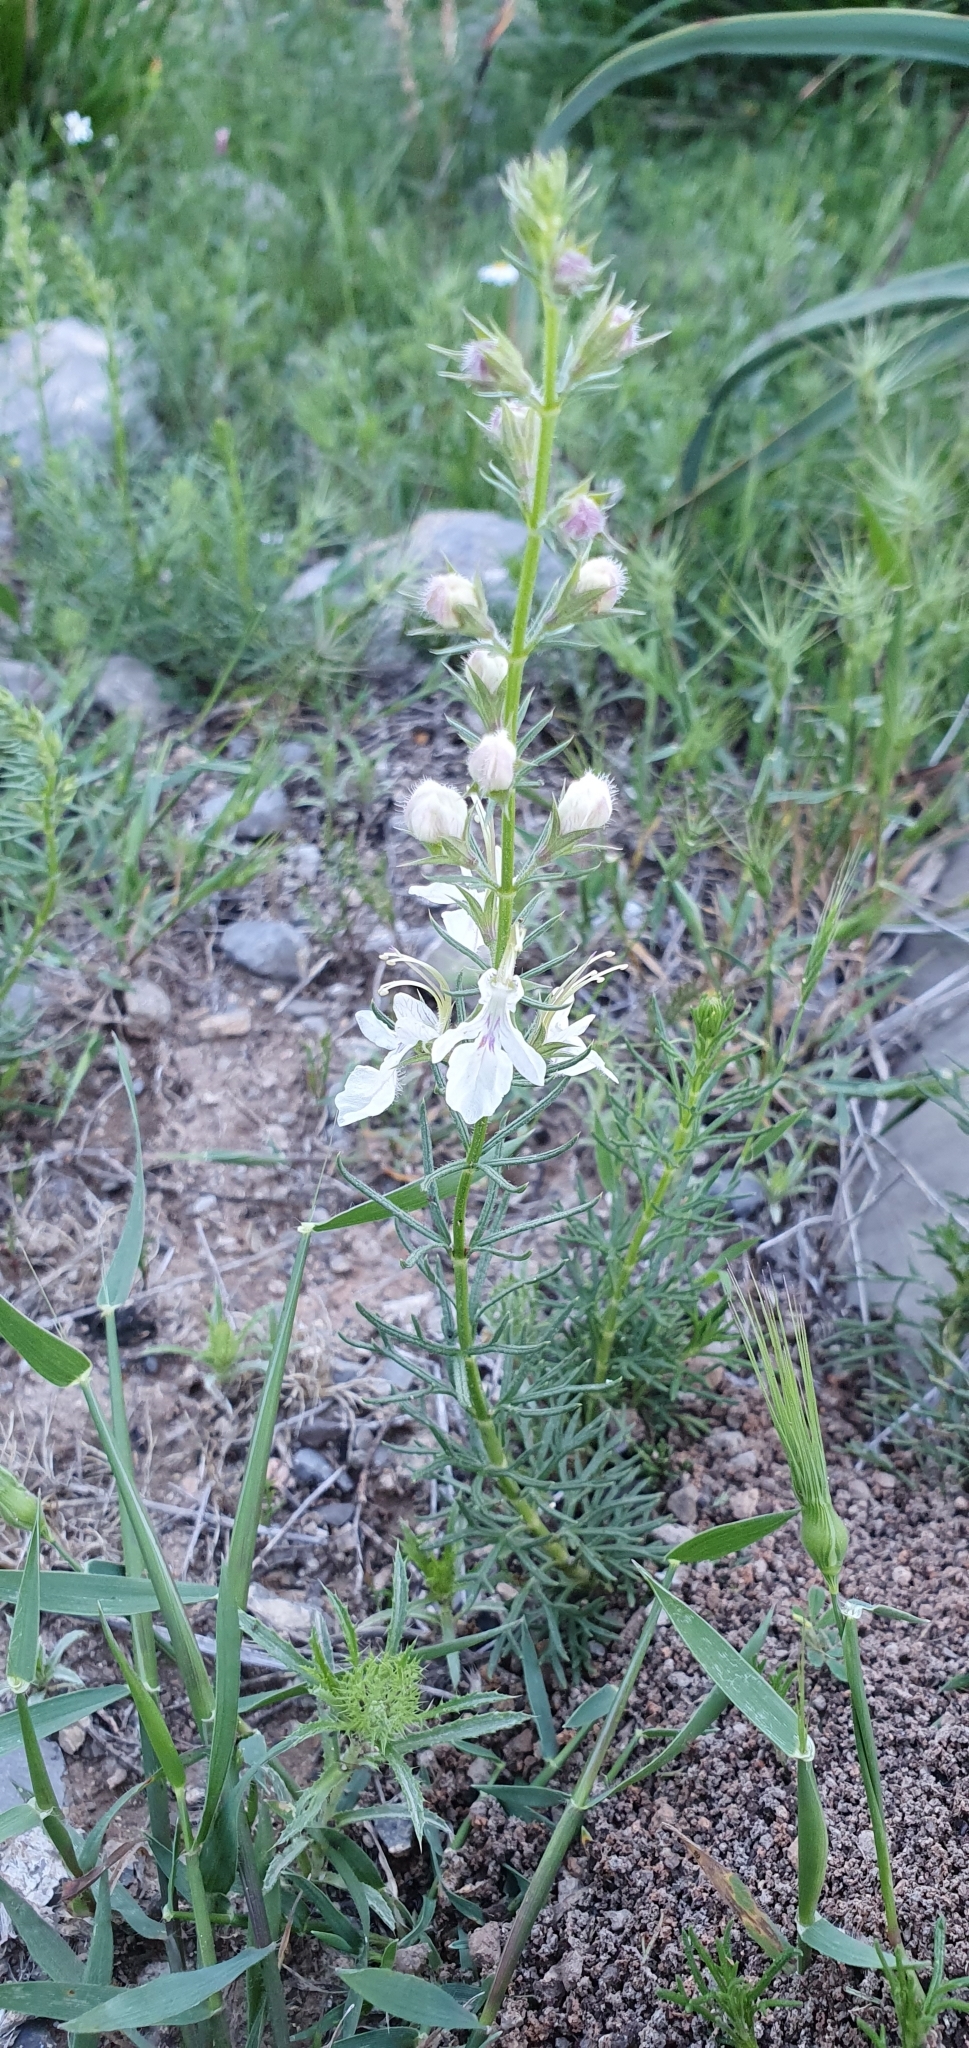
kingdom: Plantae
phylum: Tracheophyta
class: Magnoliopsida
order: Lamiales
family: Lamiaceae
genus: Teucrium
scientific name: Teucrium pseudochamaepitys
